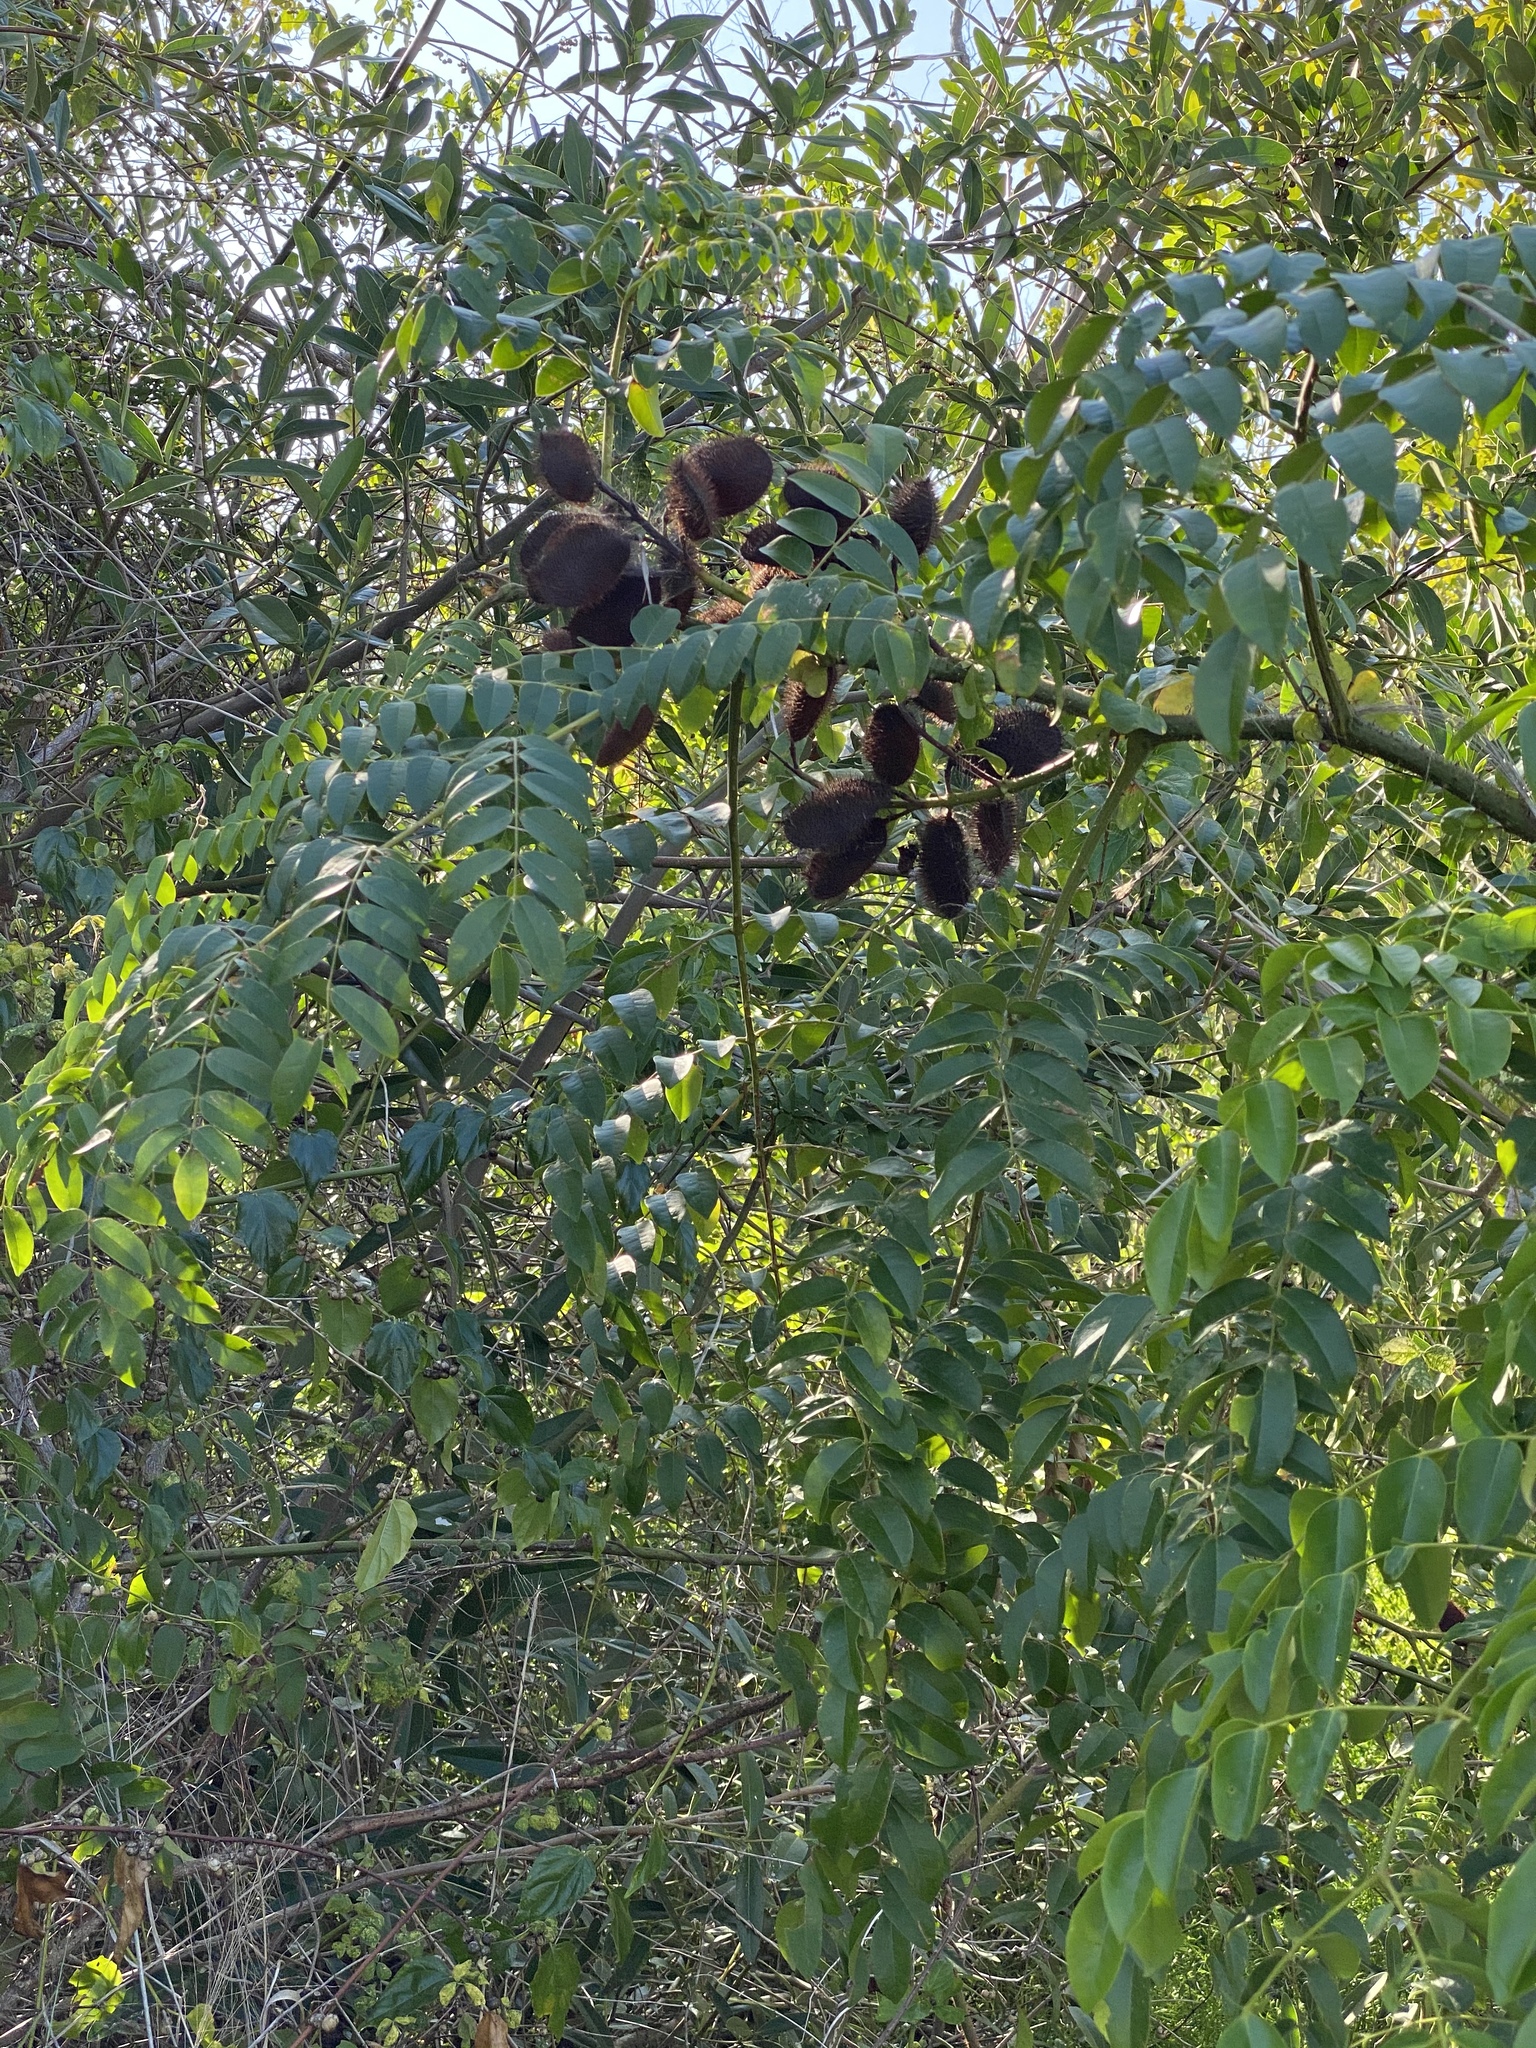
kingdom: Plantae
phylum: Tracheophyta
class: Magnoliopsida
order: Fabales
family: Fabaceae
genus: Guilandina
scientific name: Guilandina bonduc
